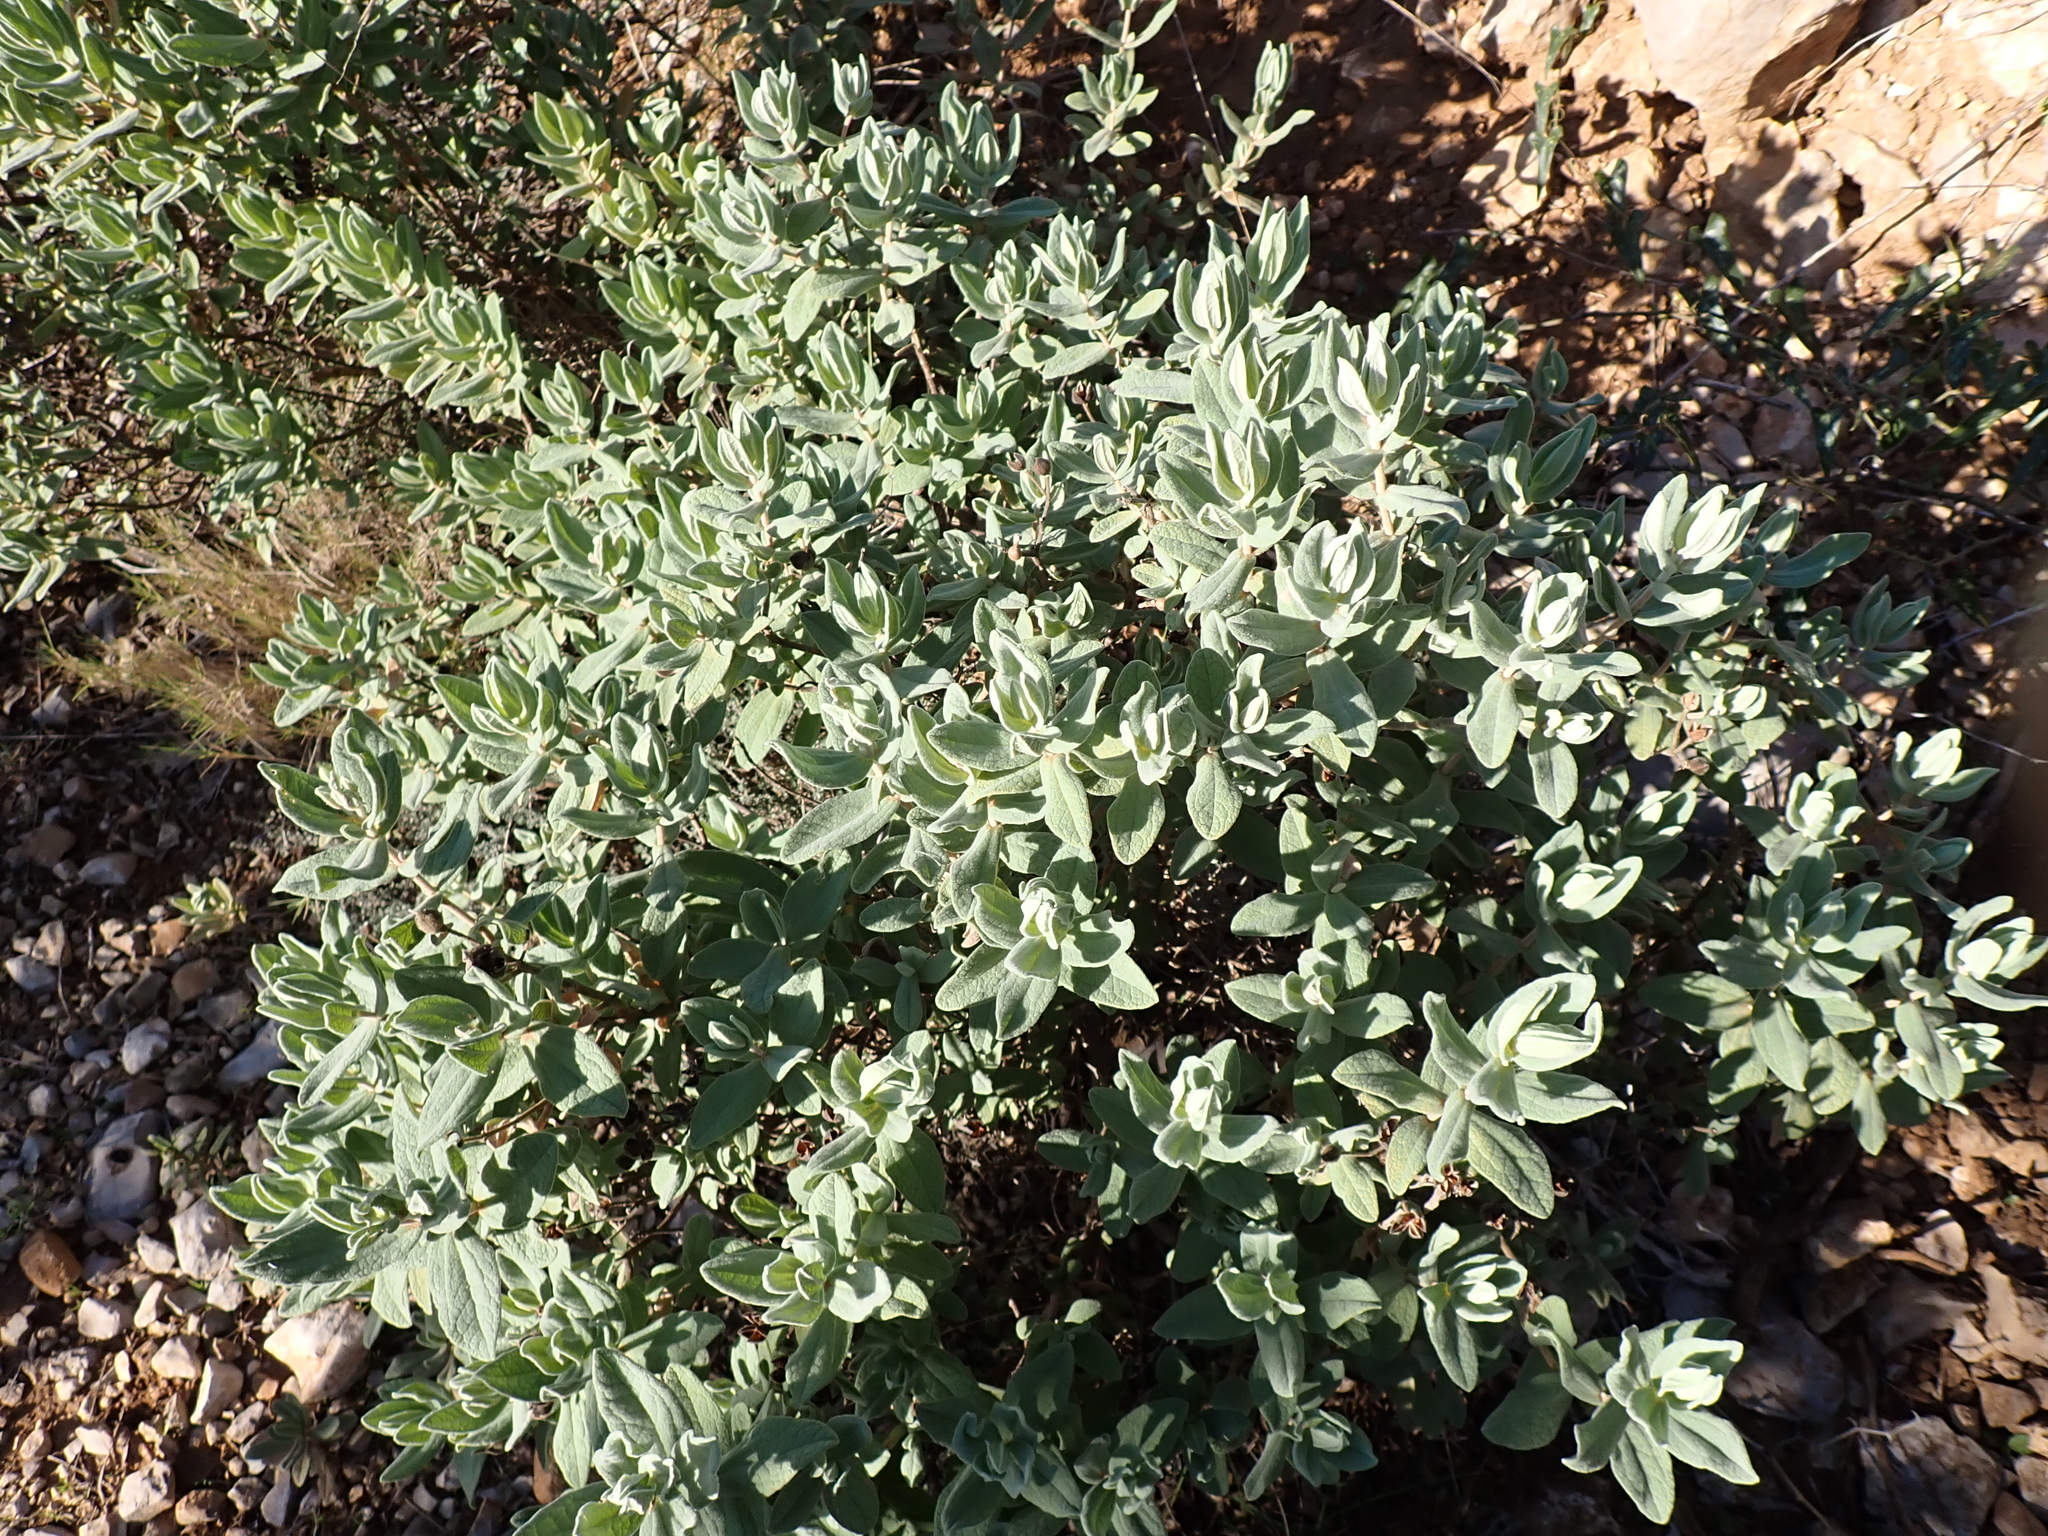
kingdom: Plantae
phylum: Tracheophyta
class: Magnoliopsida
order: Malvales
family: Cistaceae
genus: Cistus
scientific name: Cistus albidus
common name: White-leaf rock-rose
